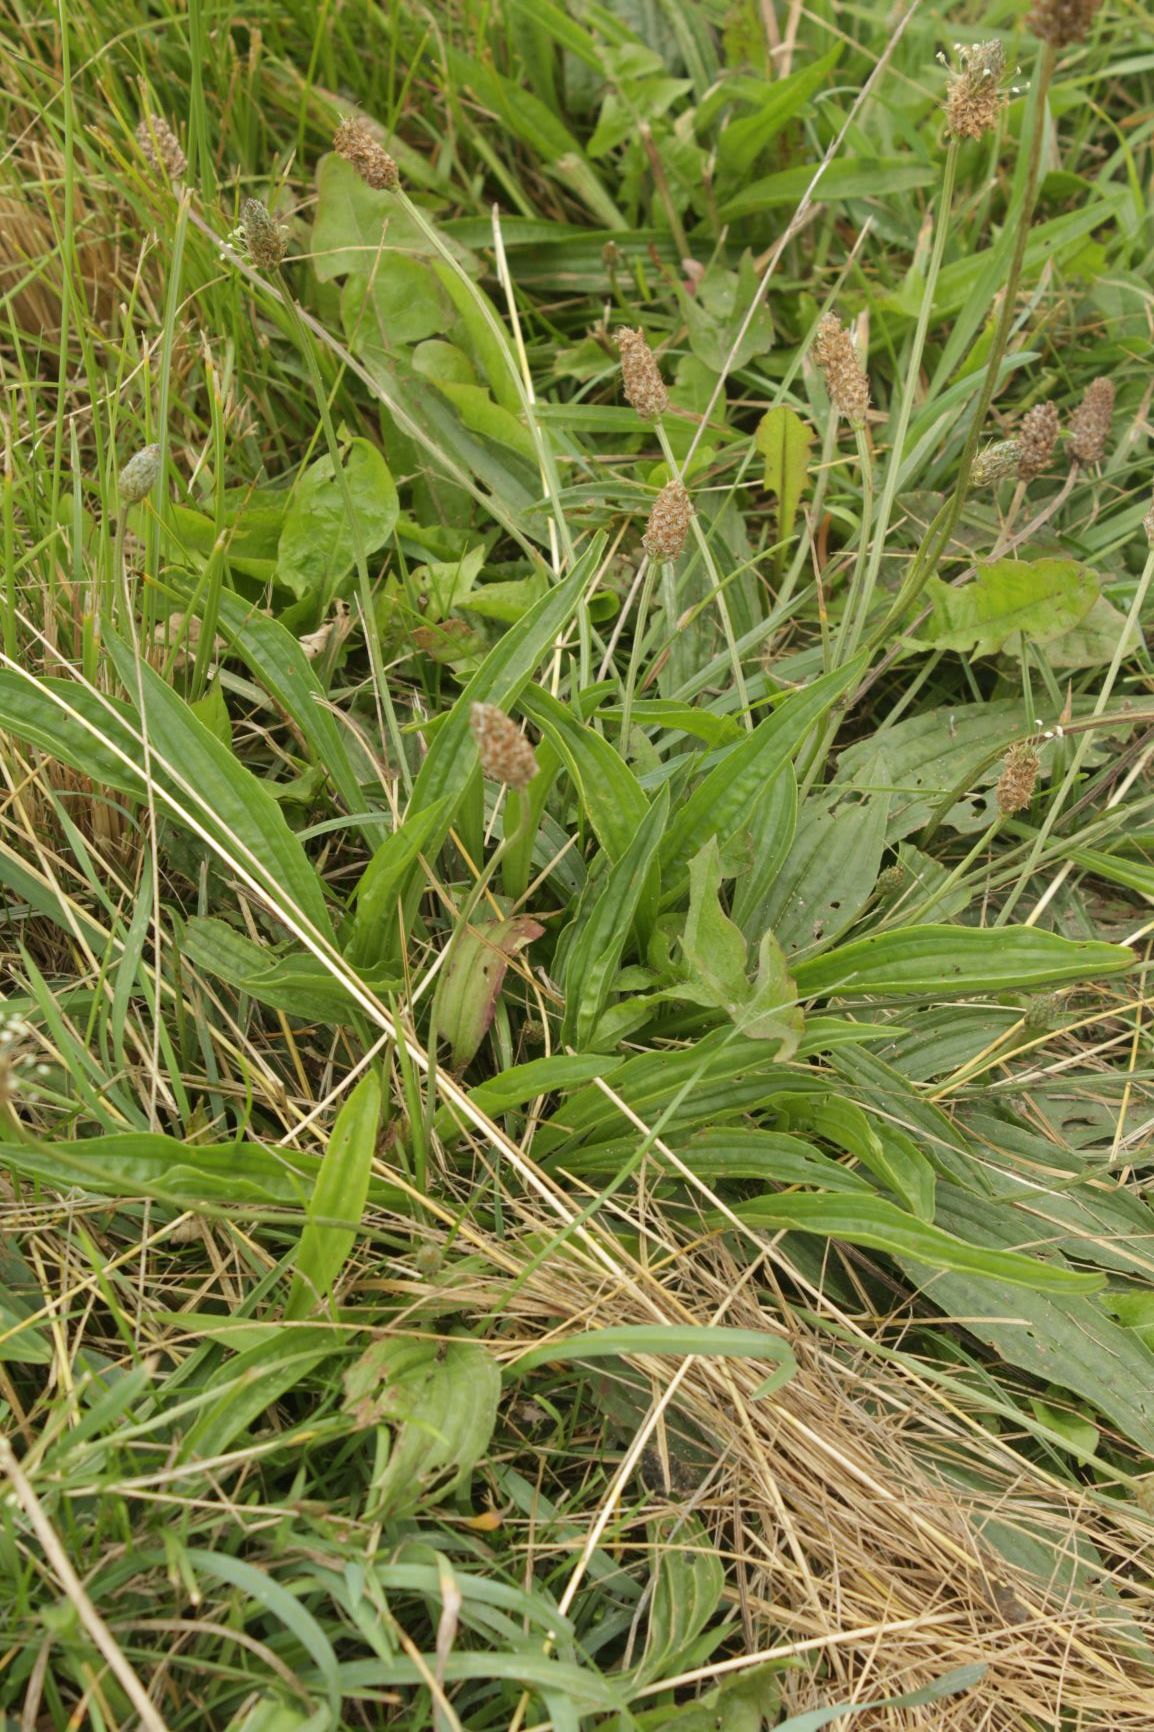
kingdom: Plantae
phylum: Tracheophyta
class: Magnoliopsida
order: Lamiales
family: Plantaginaceae
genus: Plantago
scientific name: Plantago lanceolata
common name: Ribwort plantain
